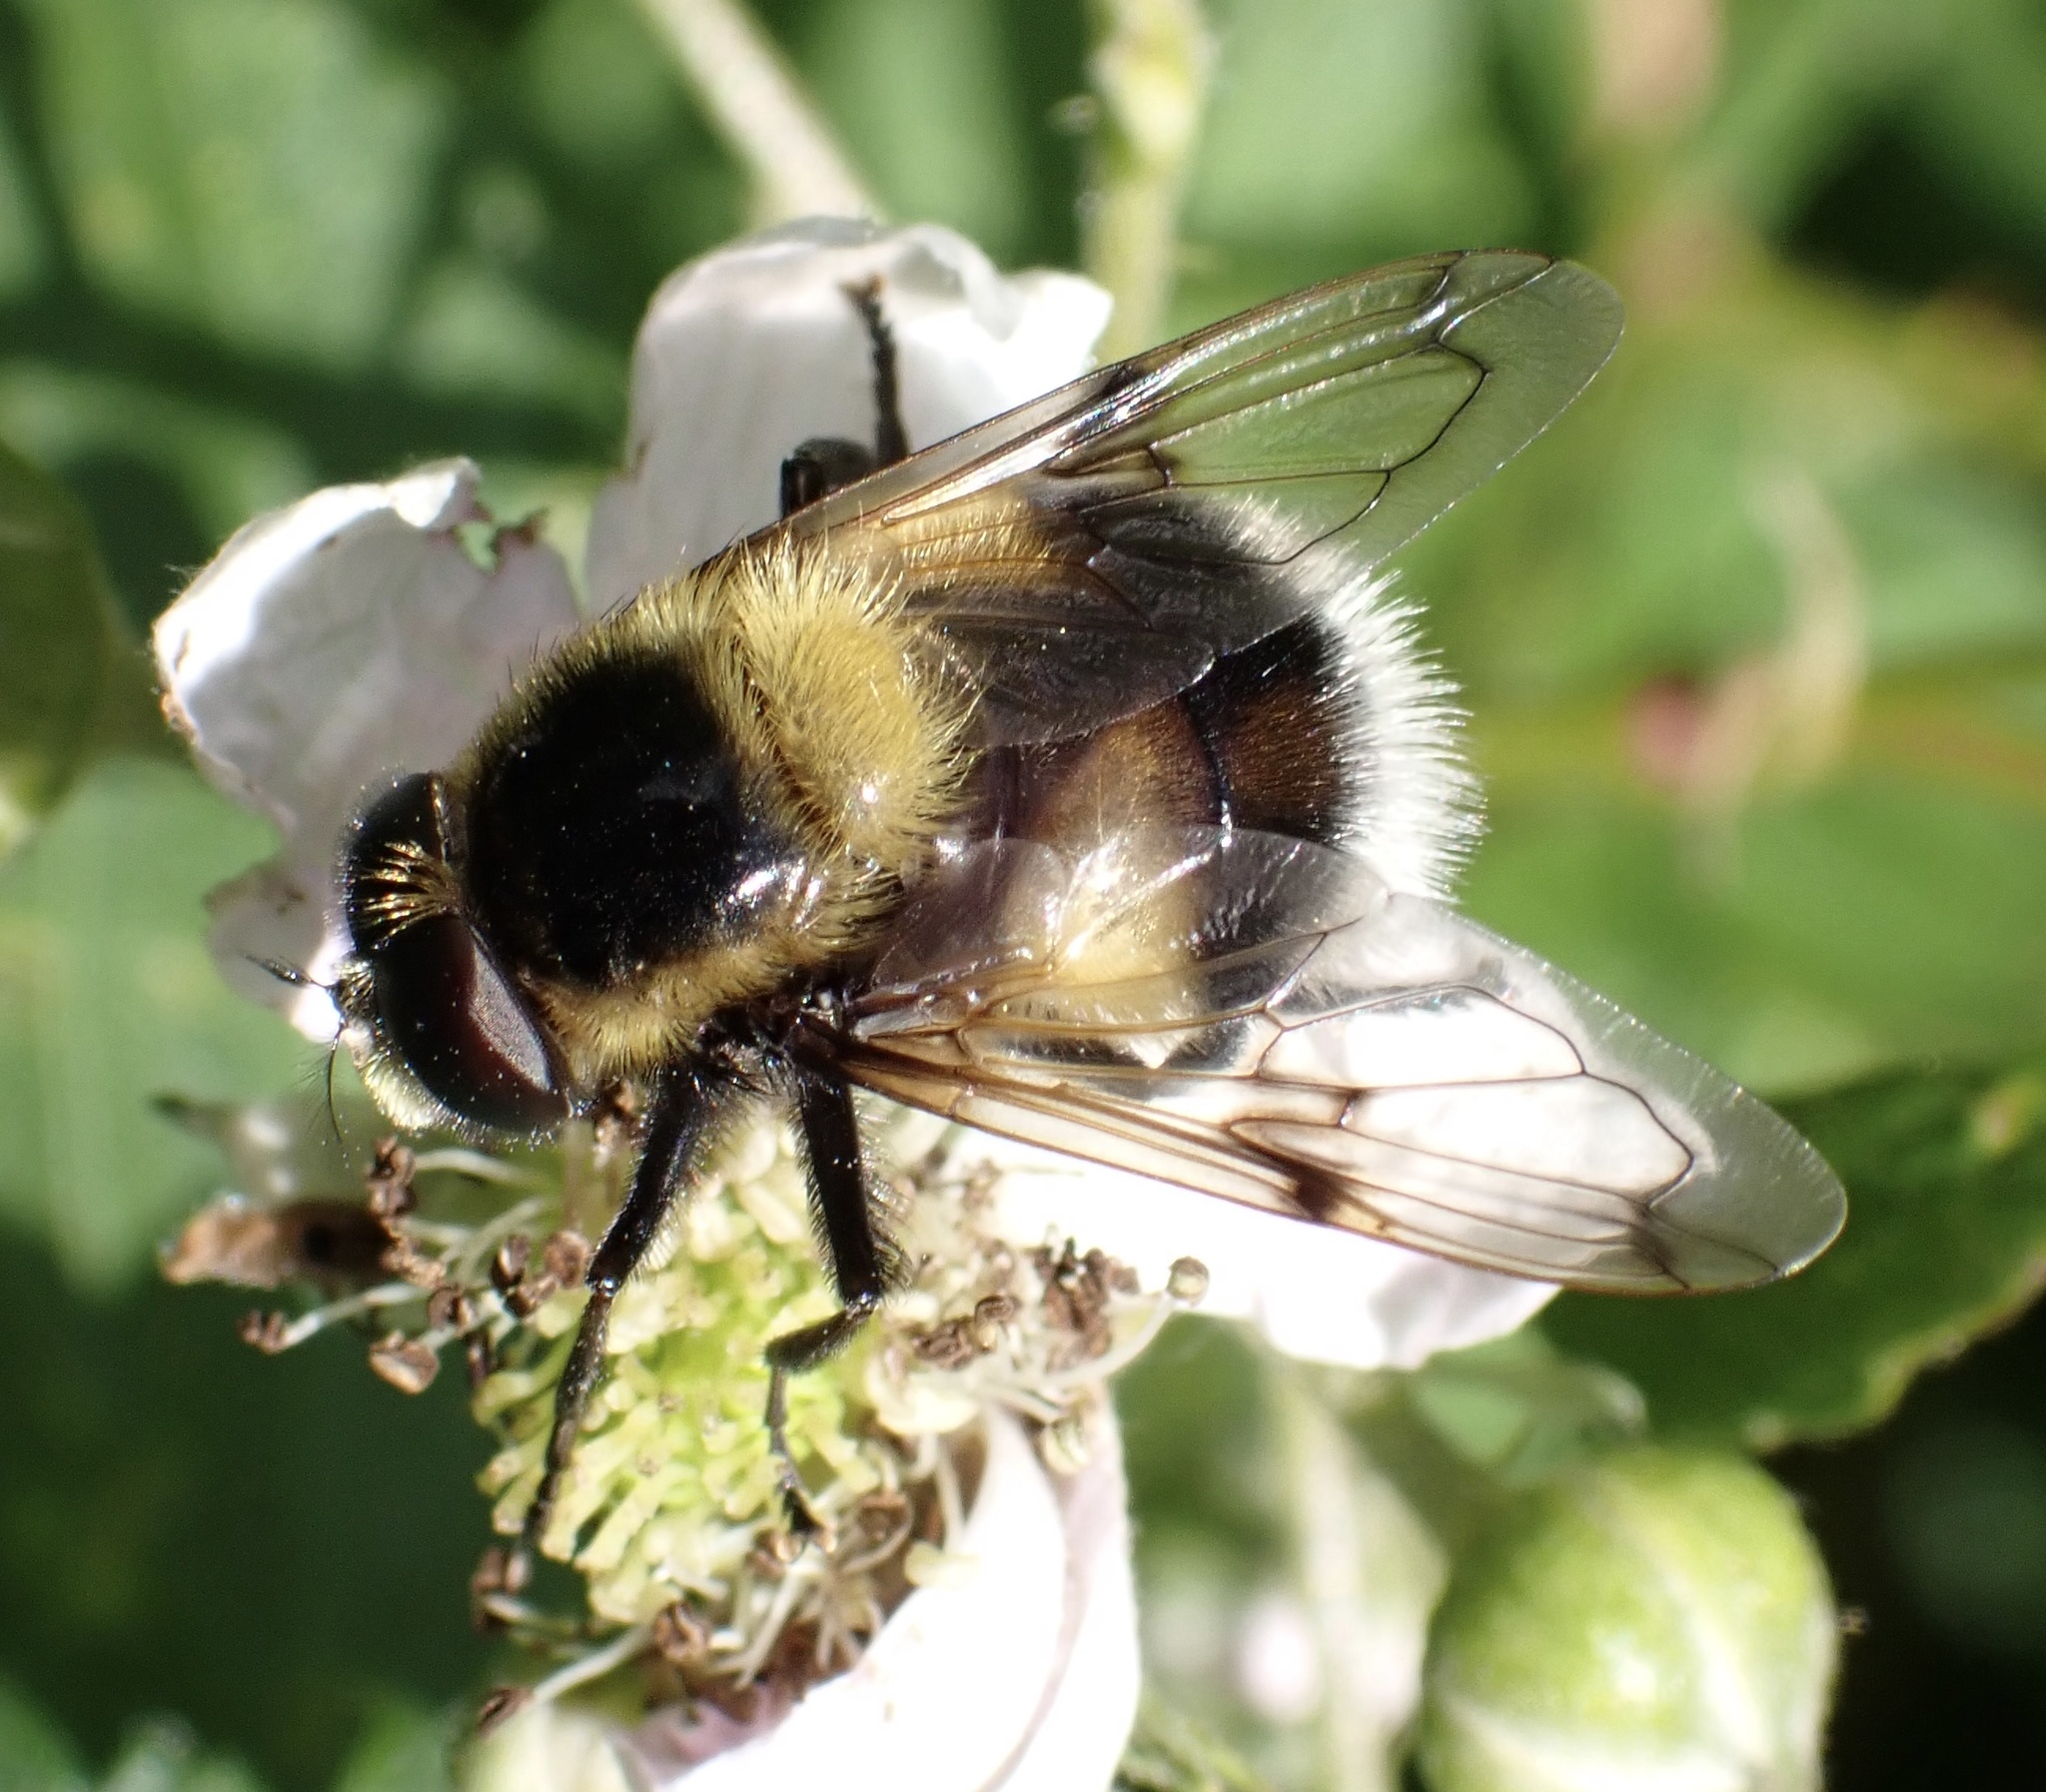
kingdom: Animalia
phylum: Arthropoda
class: Insecta
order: Diptera
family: Syrphidae
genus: Volucella
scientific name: Volucella bombylans
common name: Bumble bee hover fly
